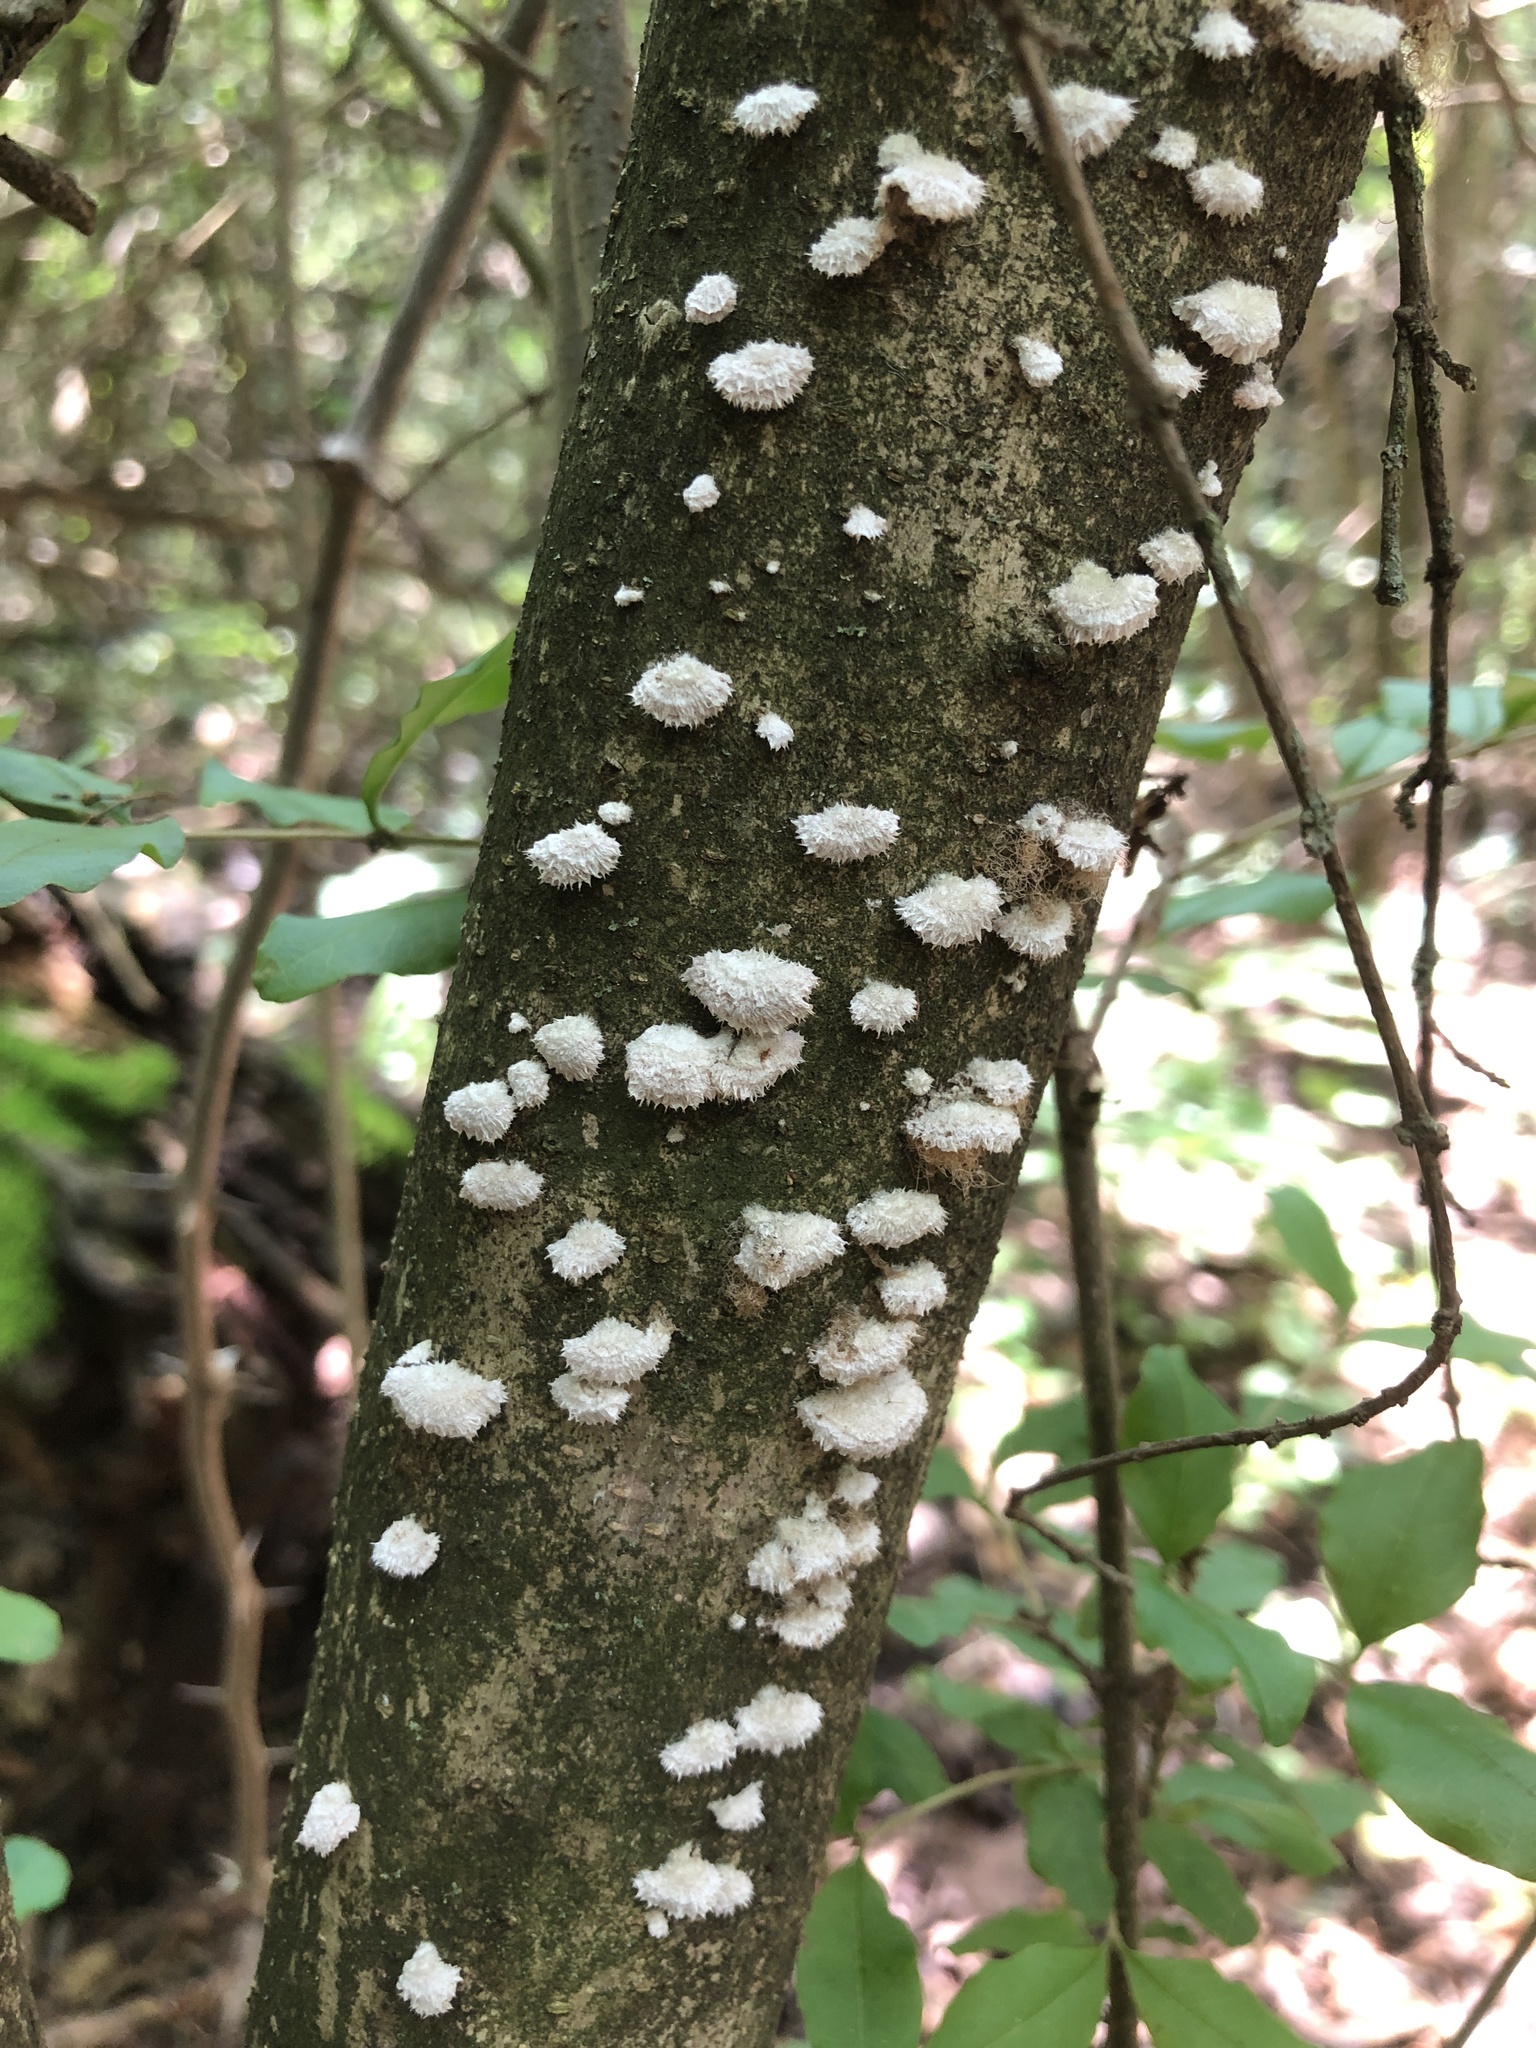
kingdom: Fungi
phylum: Basidiomycota
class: Agaricomycetes
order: Agaricales
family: Schizophyllaceae
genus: Schizophyllum
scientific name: Schizophyllum commune
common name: Common porecrust
